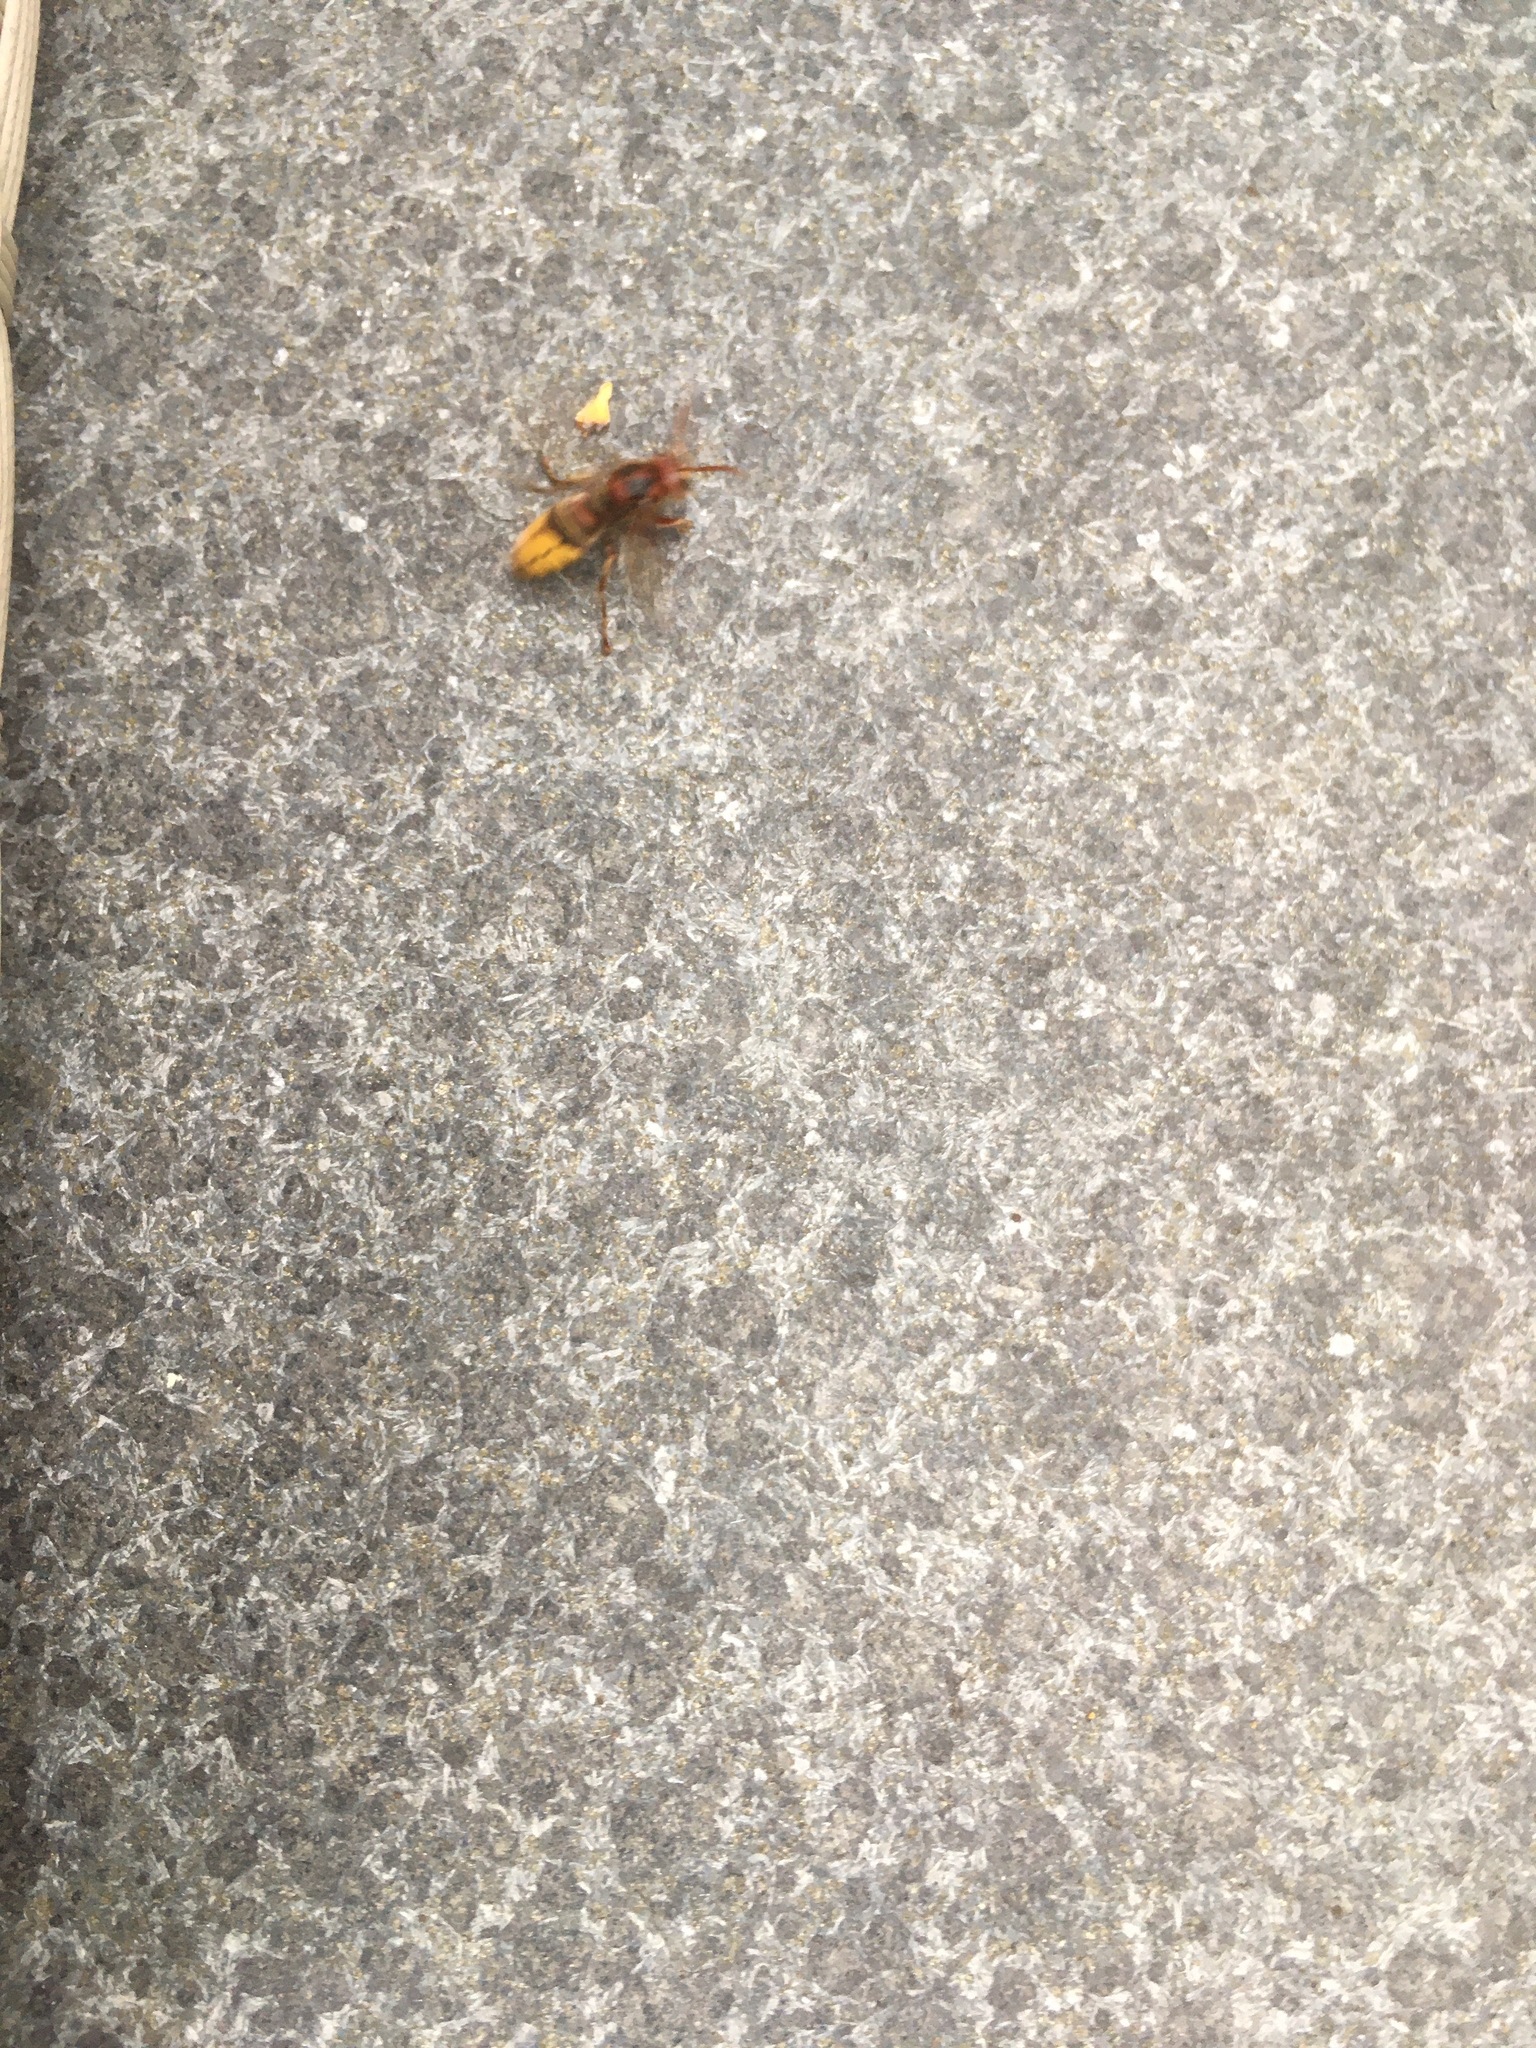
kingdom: Animalia
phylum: Arthropoda
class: Insecta
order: Hymenoptera
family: Vespidae
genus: Vespa
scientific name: Vespa crabro
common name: Hornet
